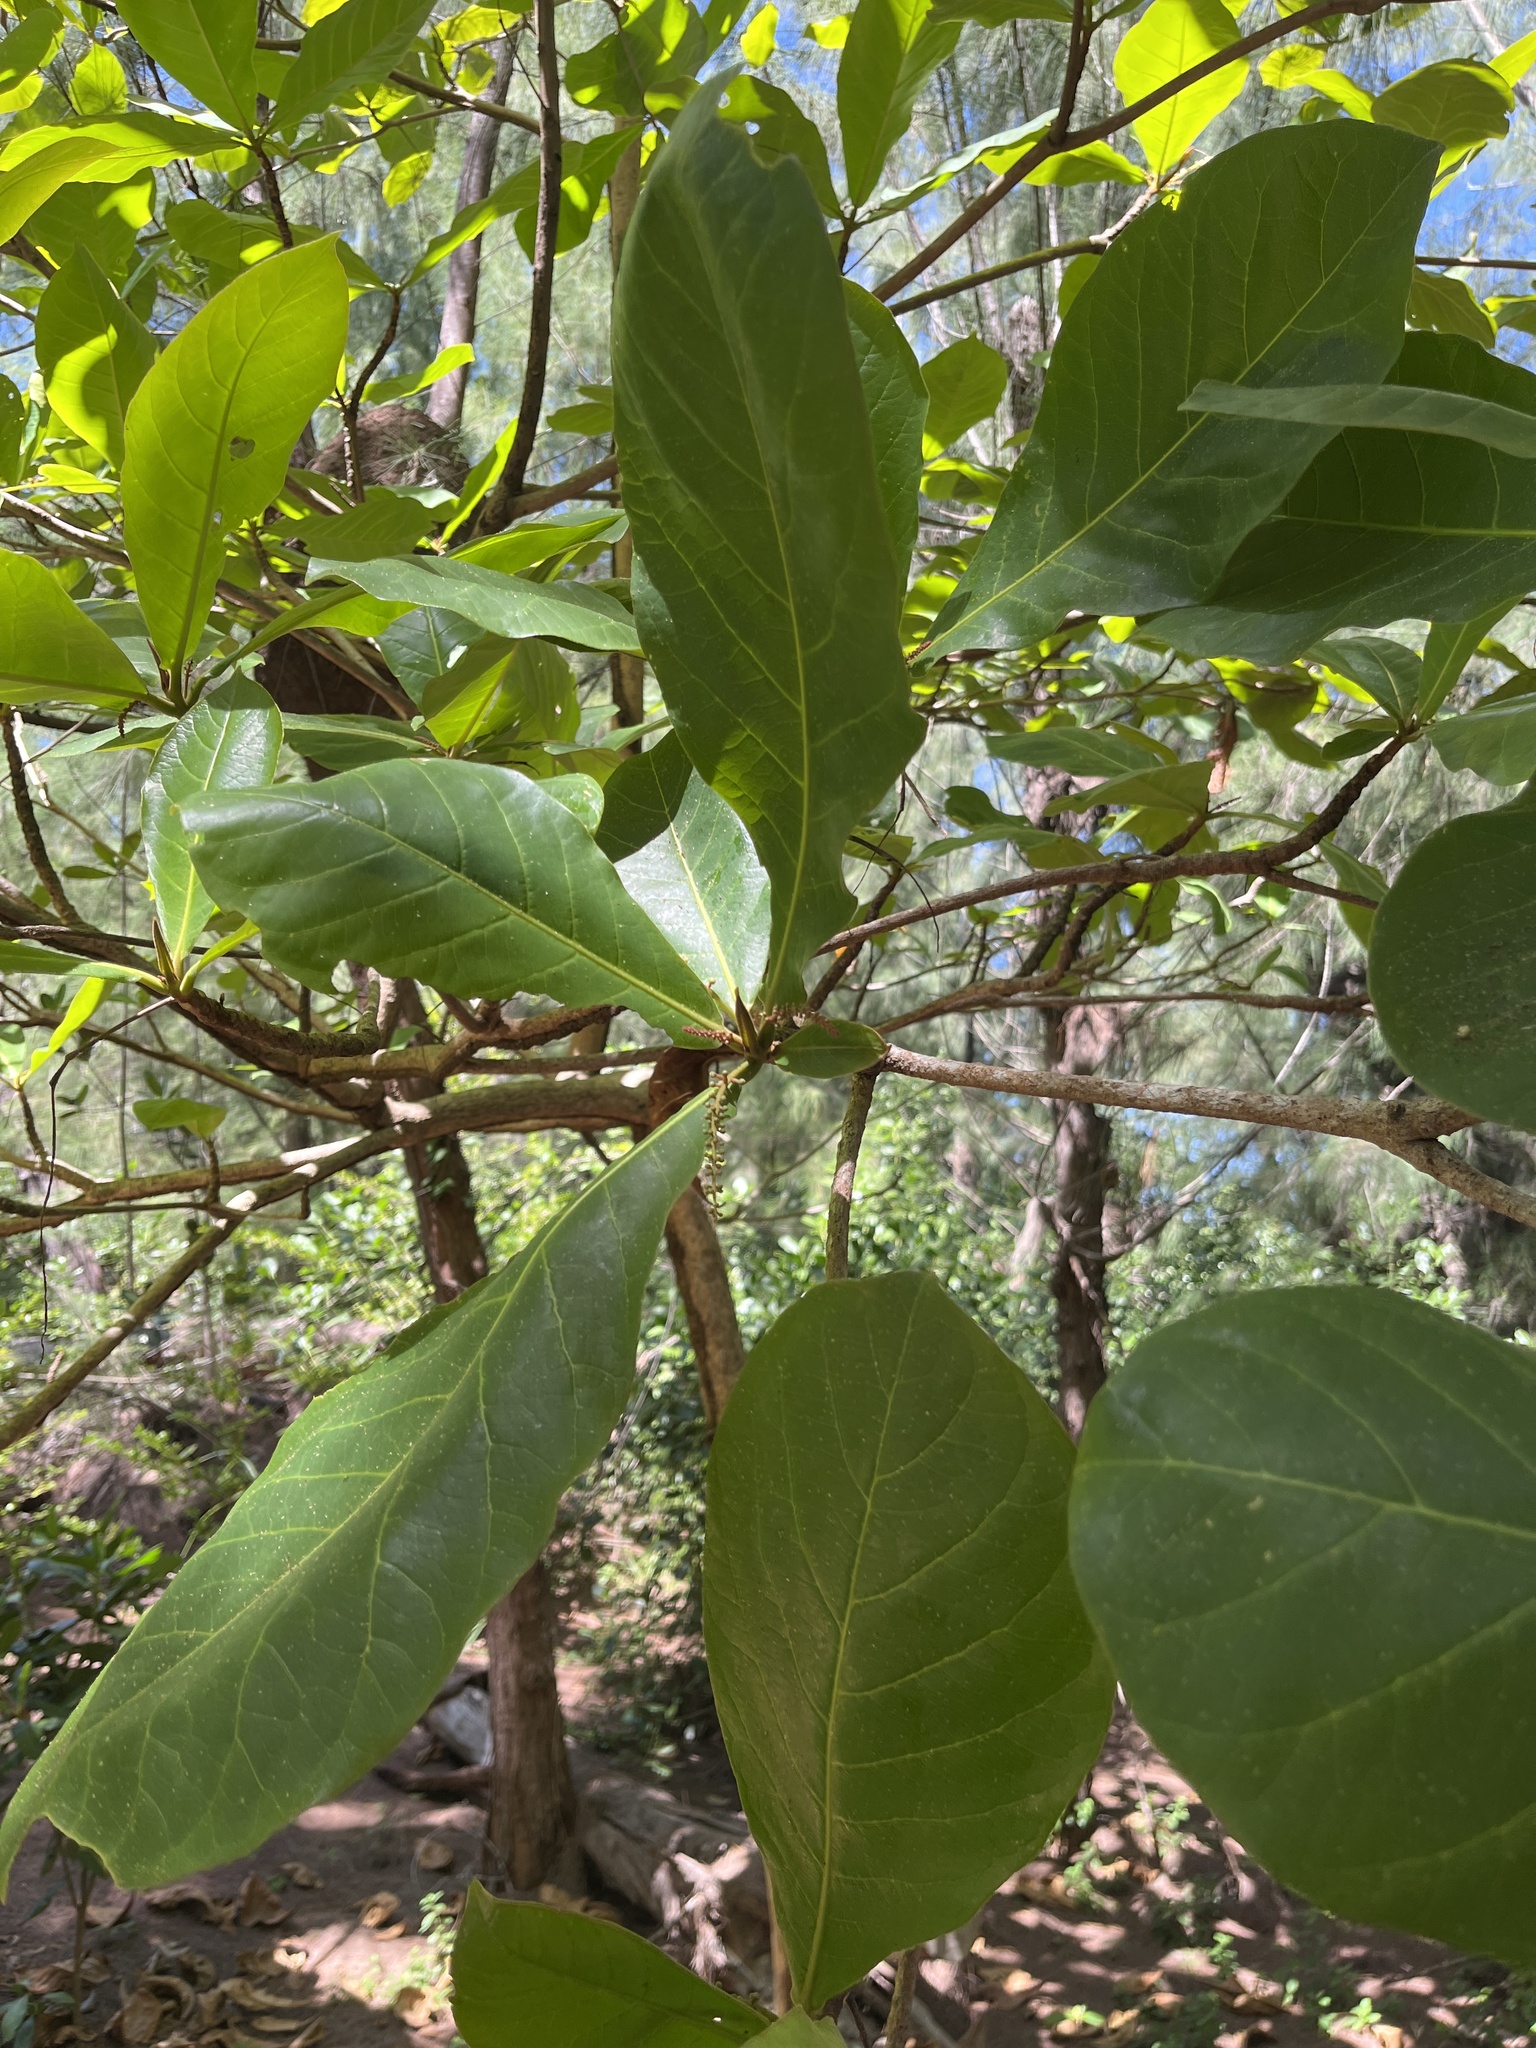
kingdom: Plantae
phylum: Tracheophyta
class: Magnoliopsida
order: Myrtales
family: Combretaceae
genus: Terminalia
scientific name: Terminalia catappa
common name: Tropical almond
